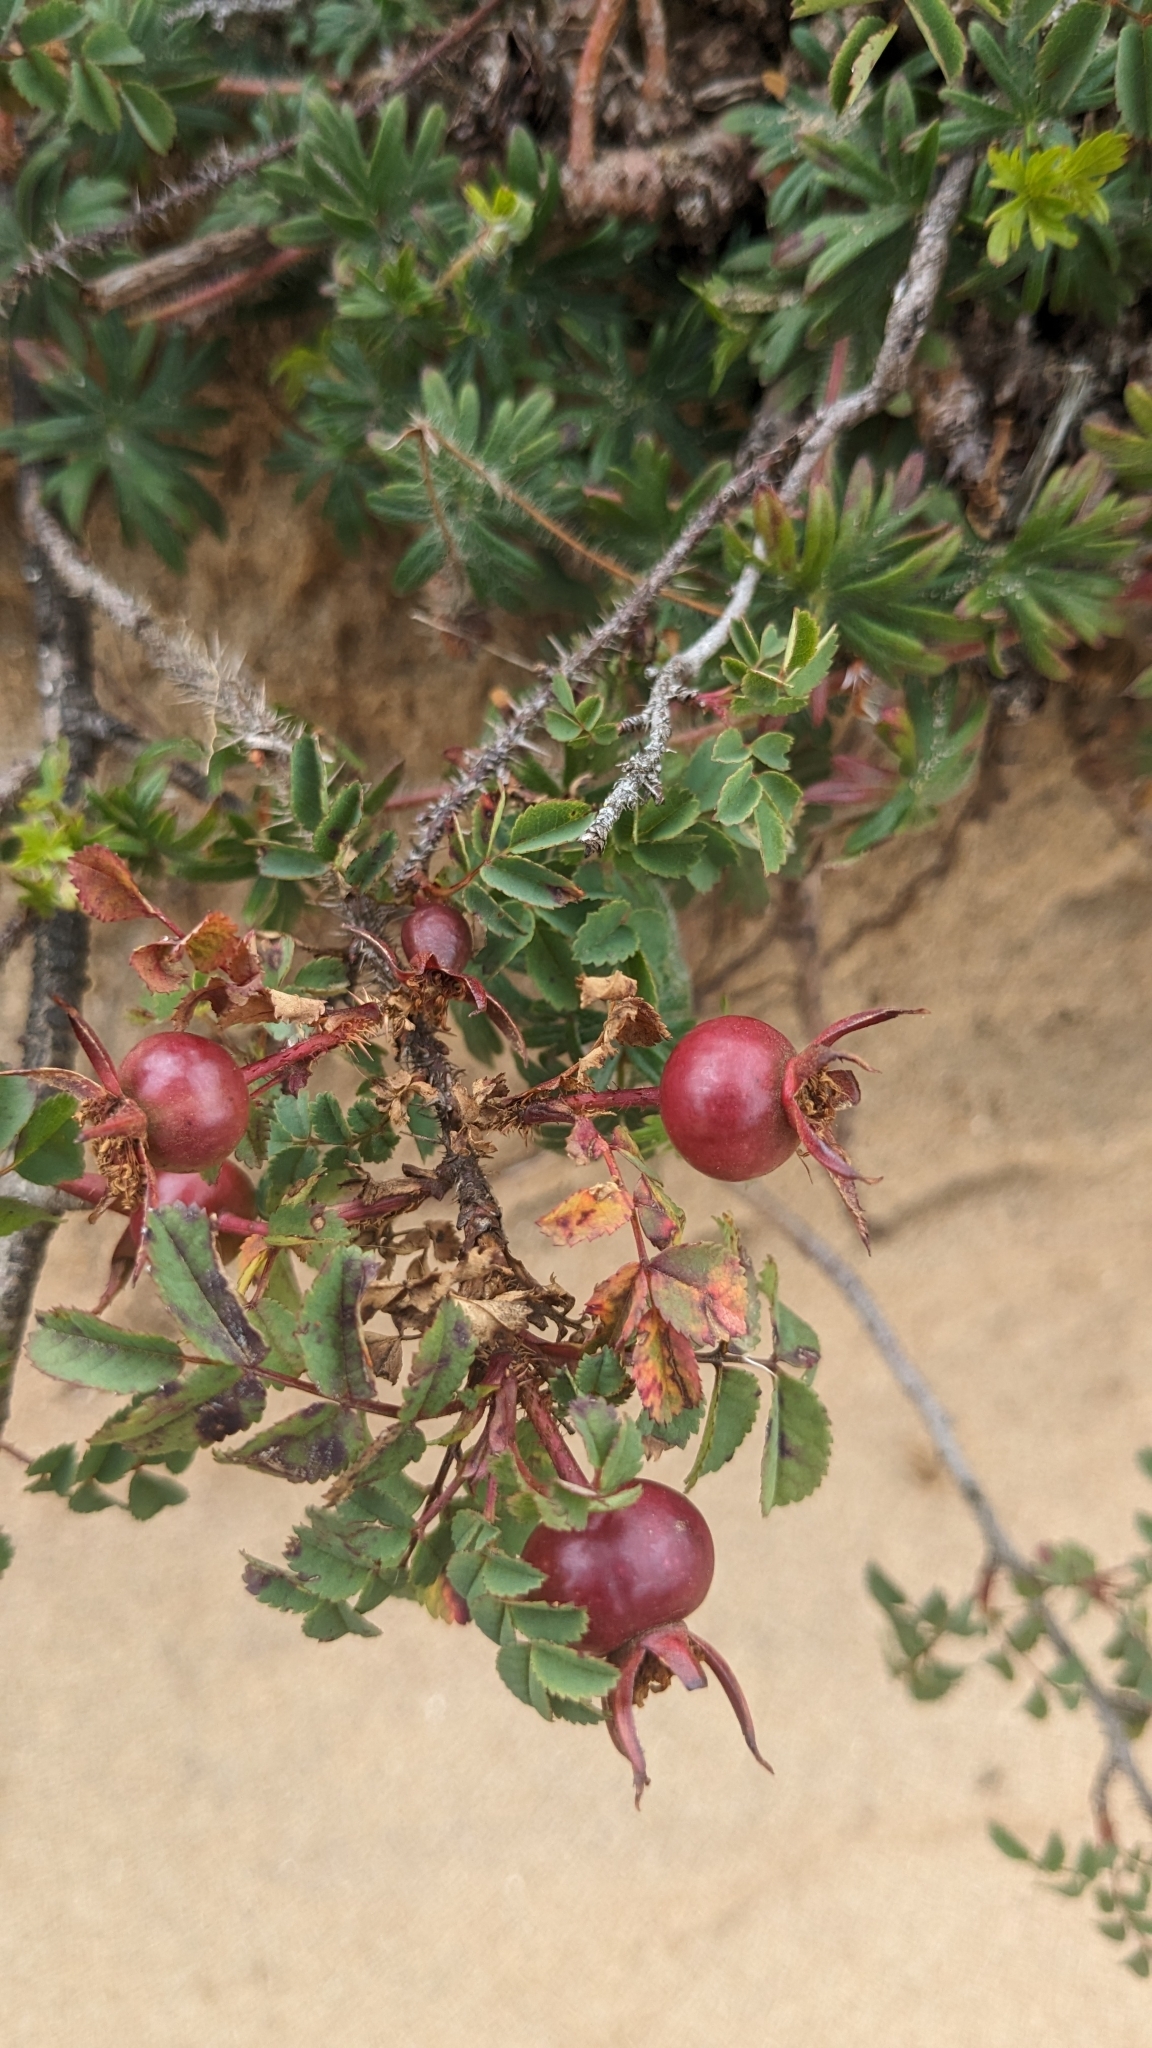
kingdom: Plantae
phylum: Tracheophyta
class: Magnoliopsida
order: Rosales
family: Rosaceae
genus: Rosa
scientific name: Rosa spinosissima
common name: Burnet rose
